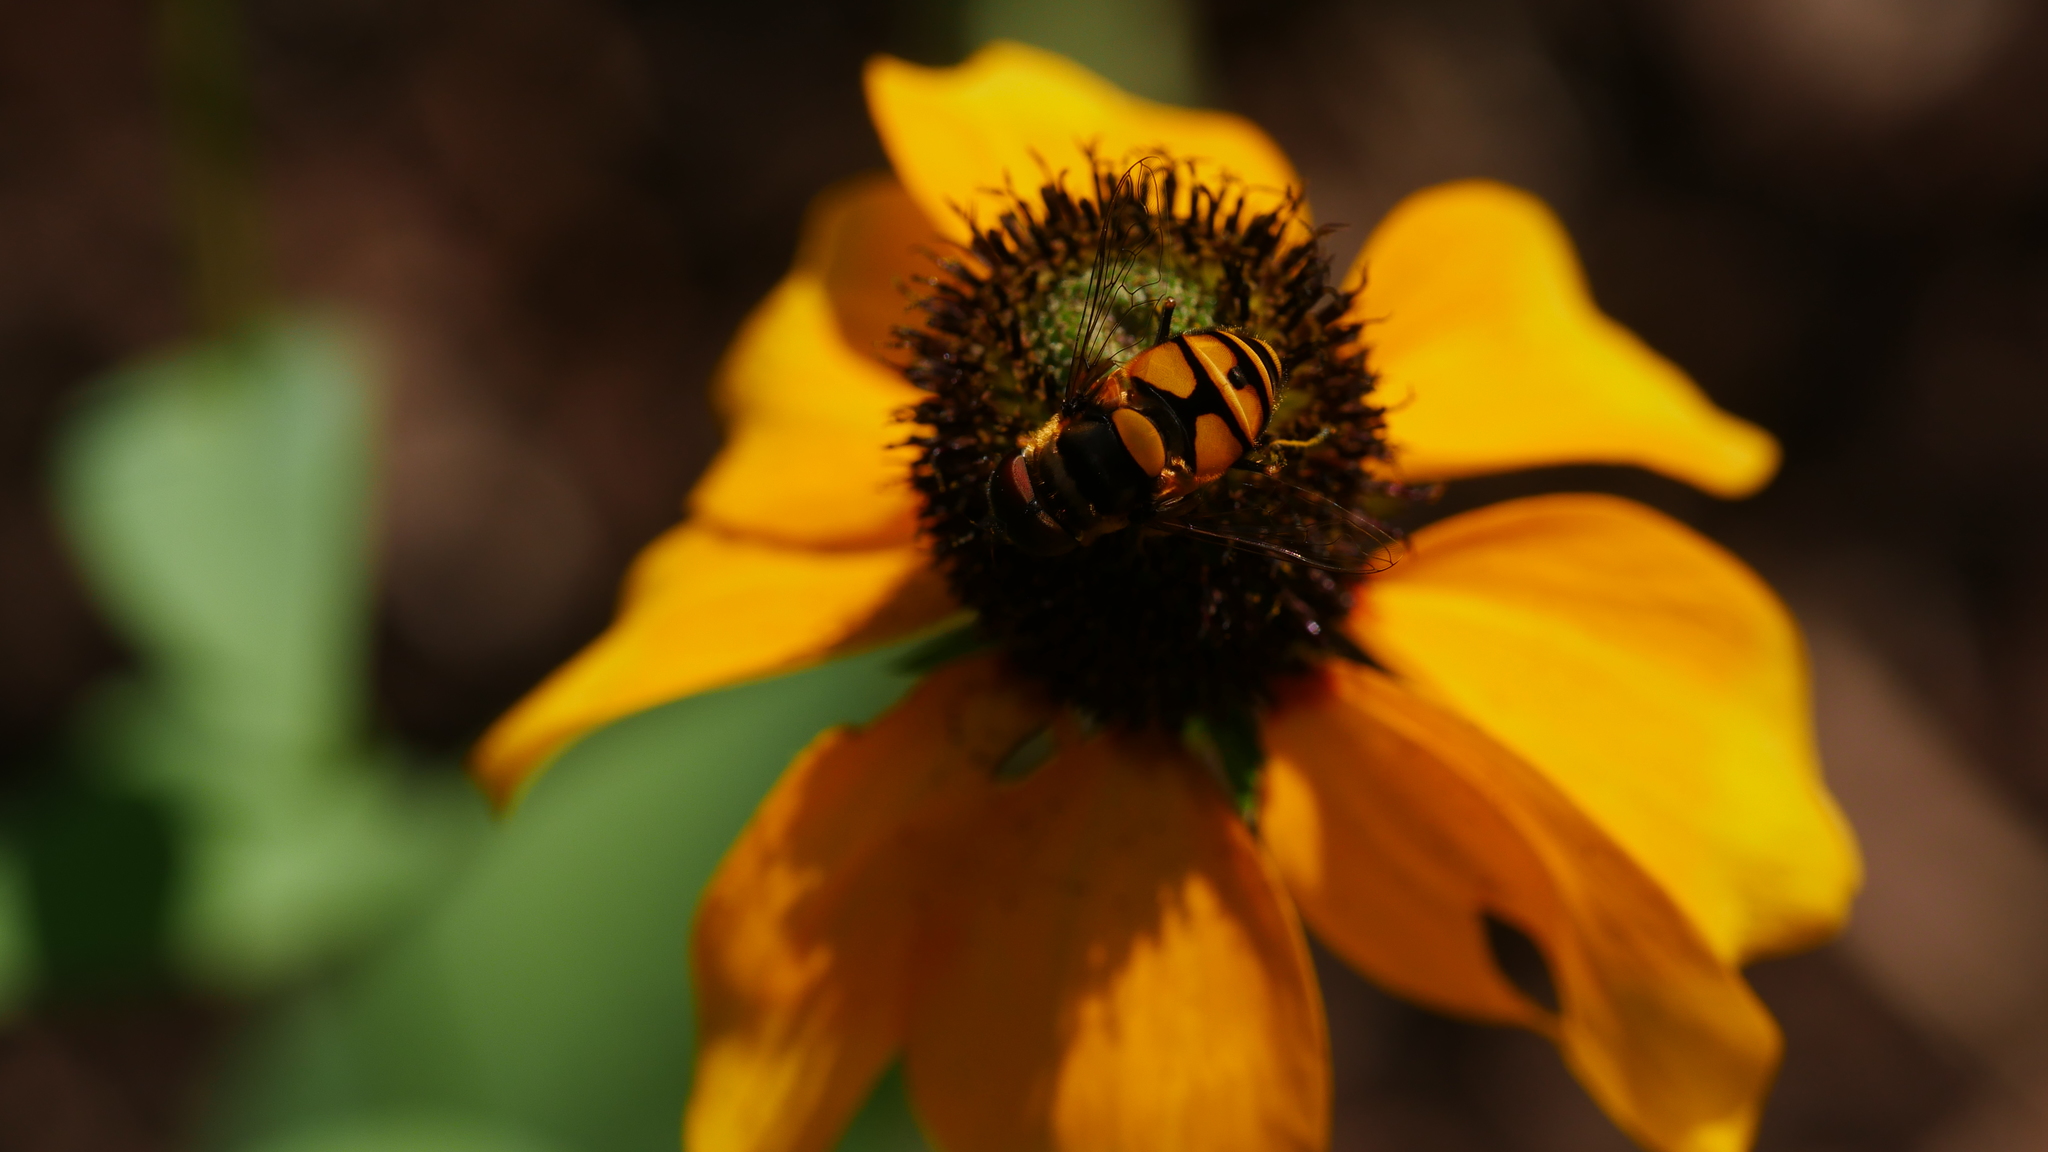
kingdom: Animalia
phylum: Arthropoda
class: Insecta
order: Diptera
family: Syrphidae
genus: Eristalis
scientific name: Eristalis transversa
